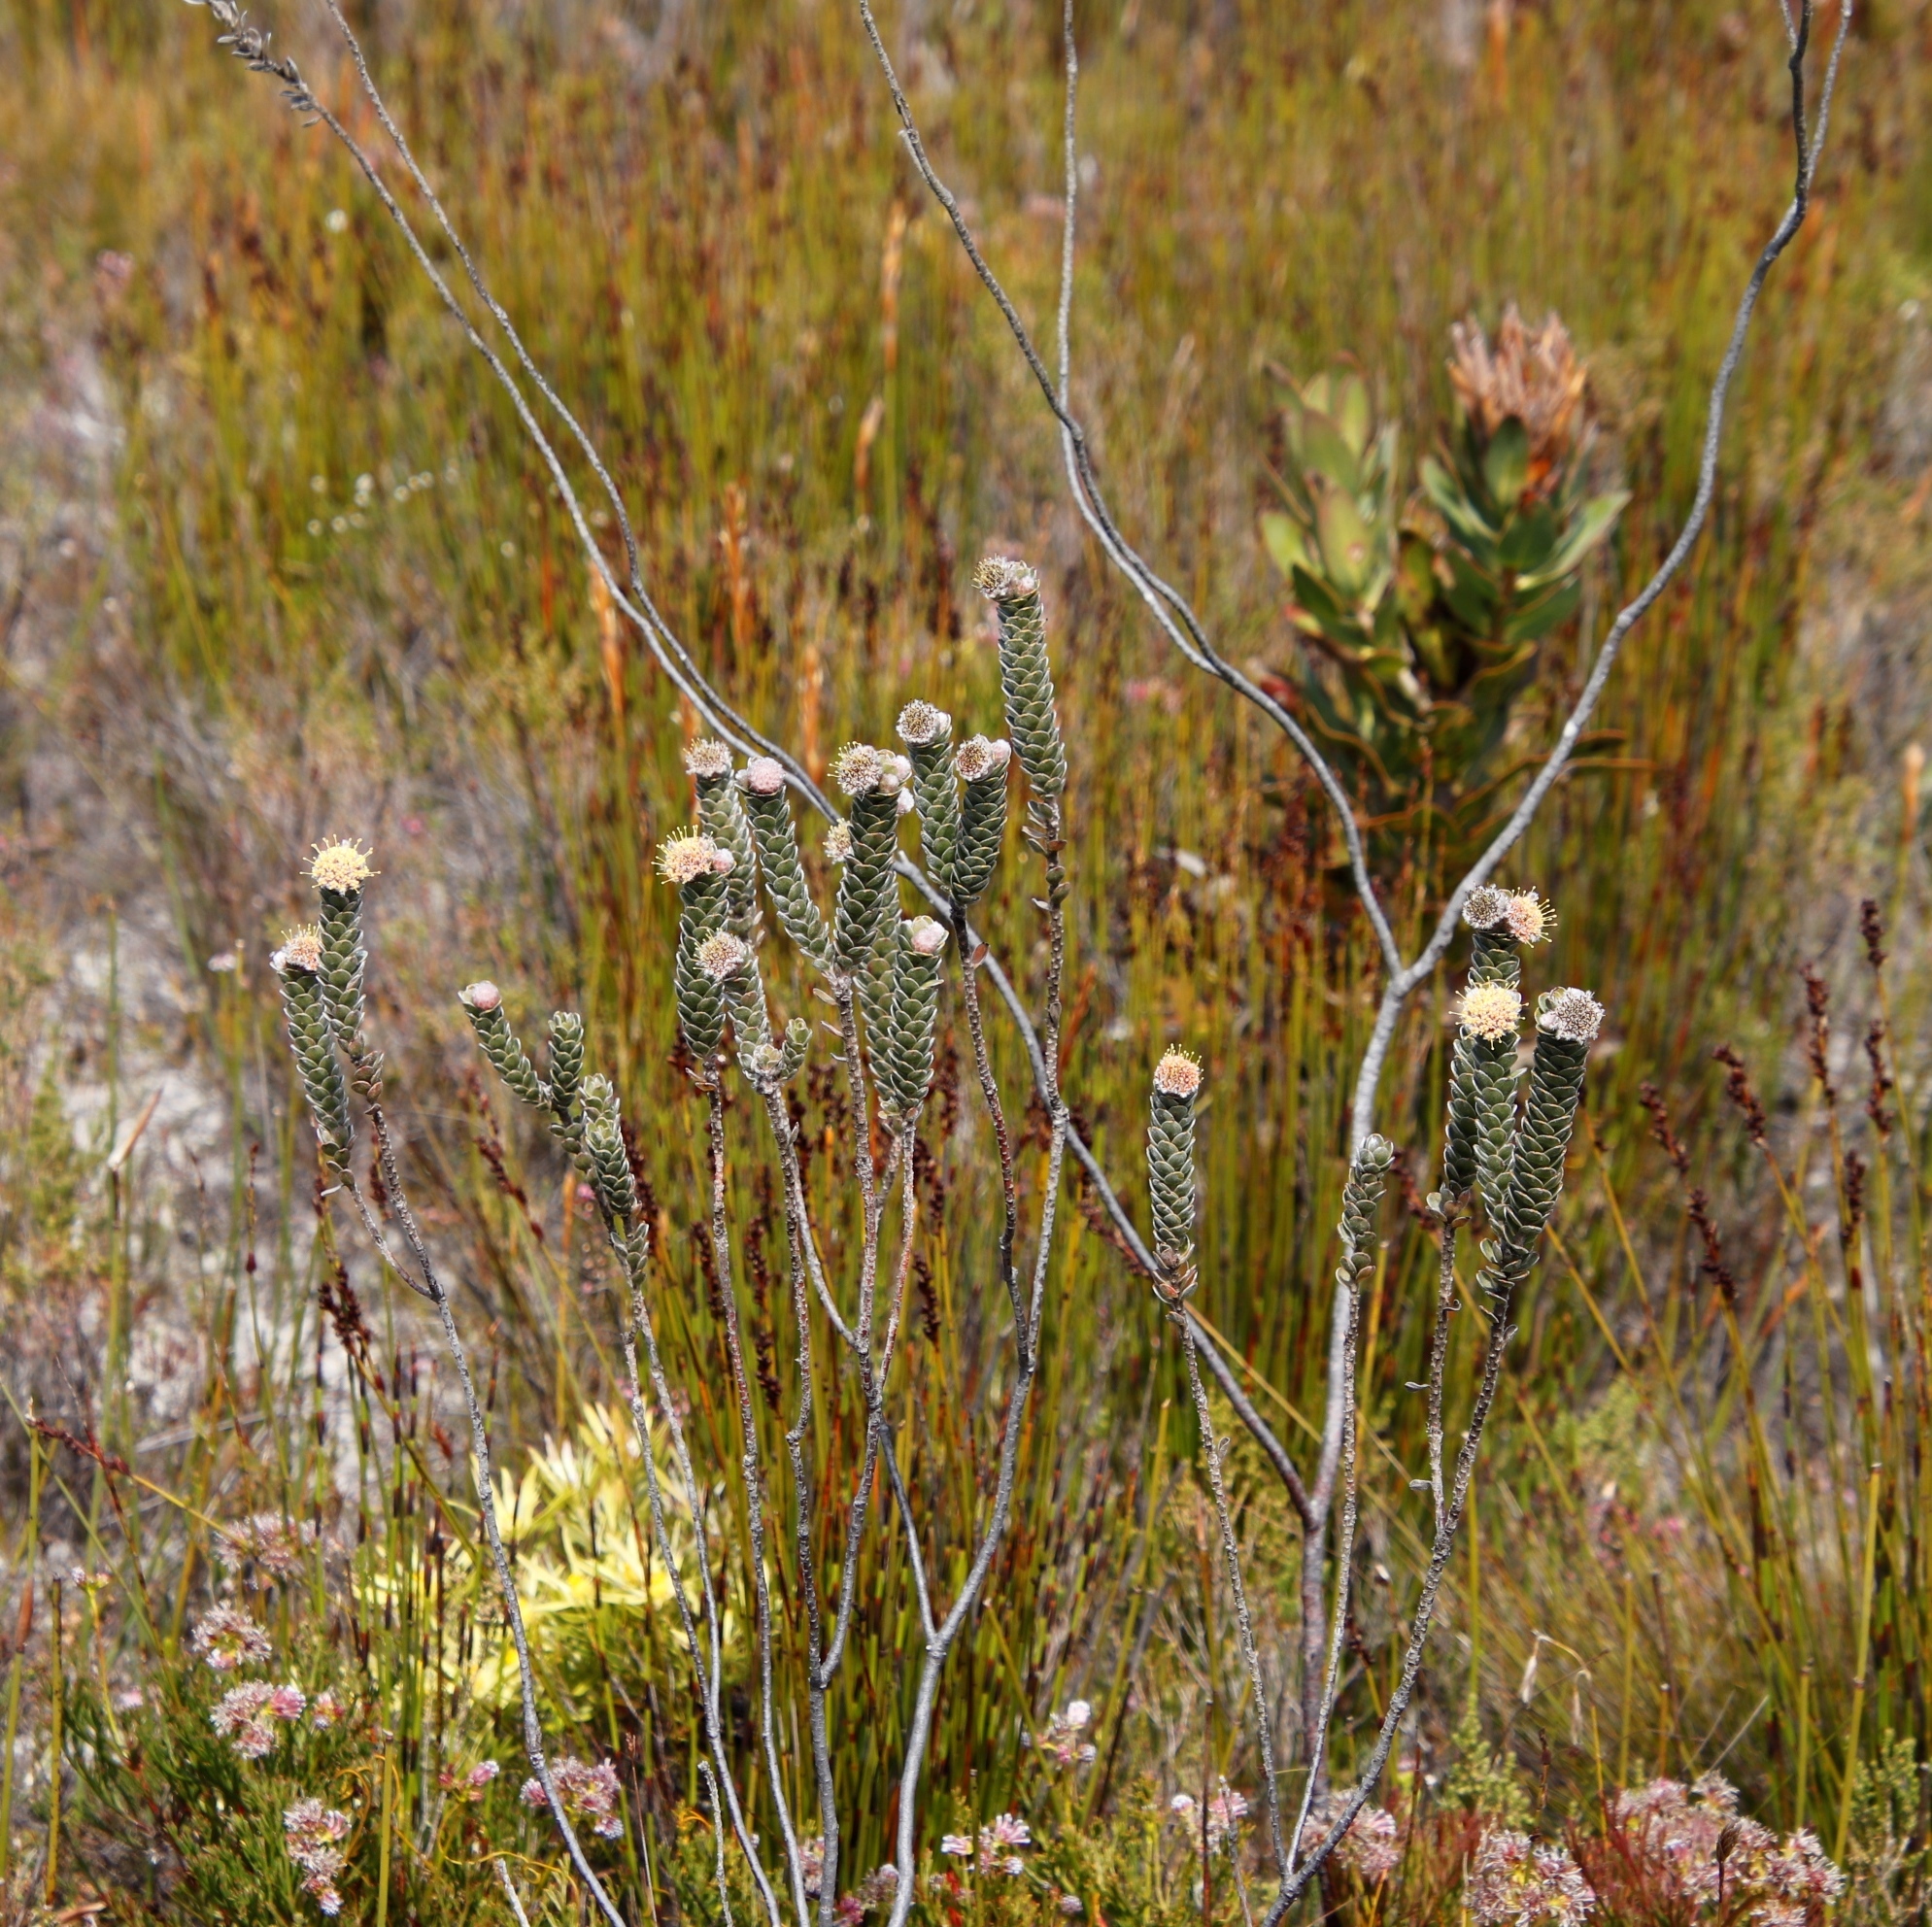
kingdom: Plantae
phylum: Tracheophyta
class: Magnoliopsida
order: Proteales
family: Proteaceae
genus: Leucospermum
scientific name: Leucospermum truncatulum
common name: Oval-leaf pincushion
